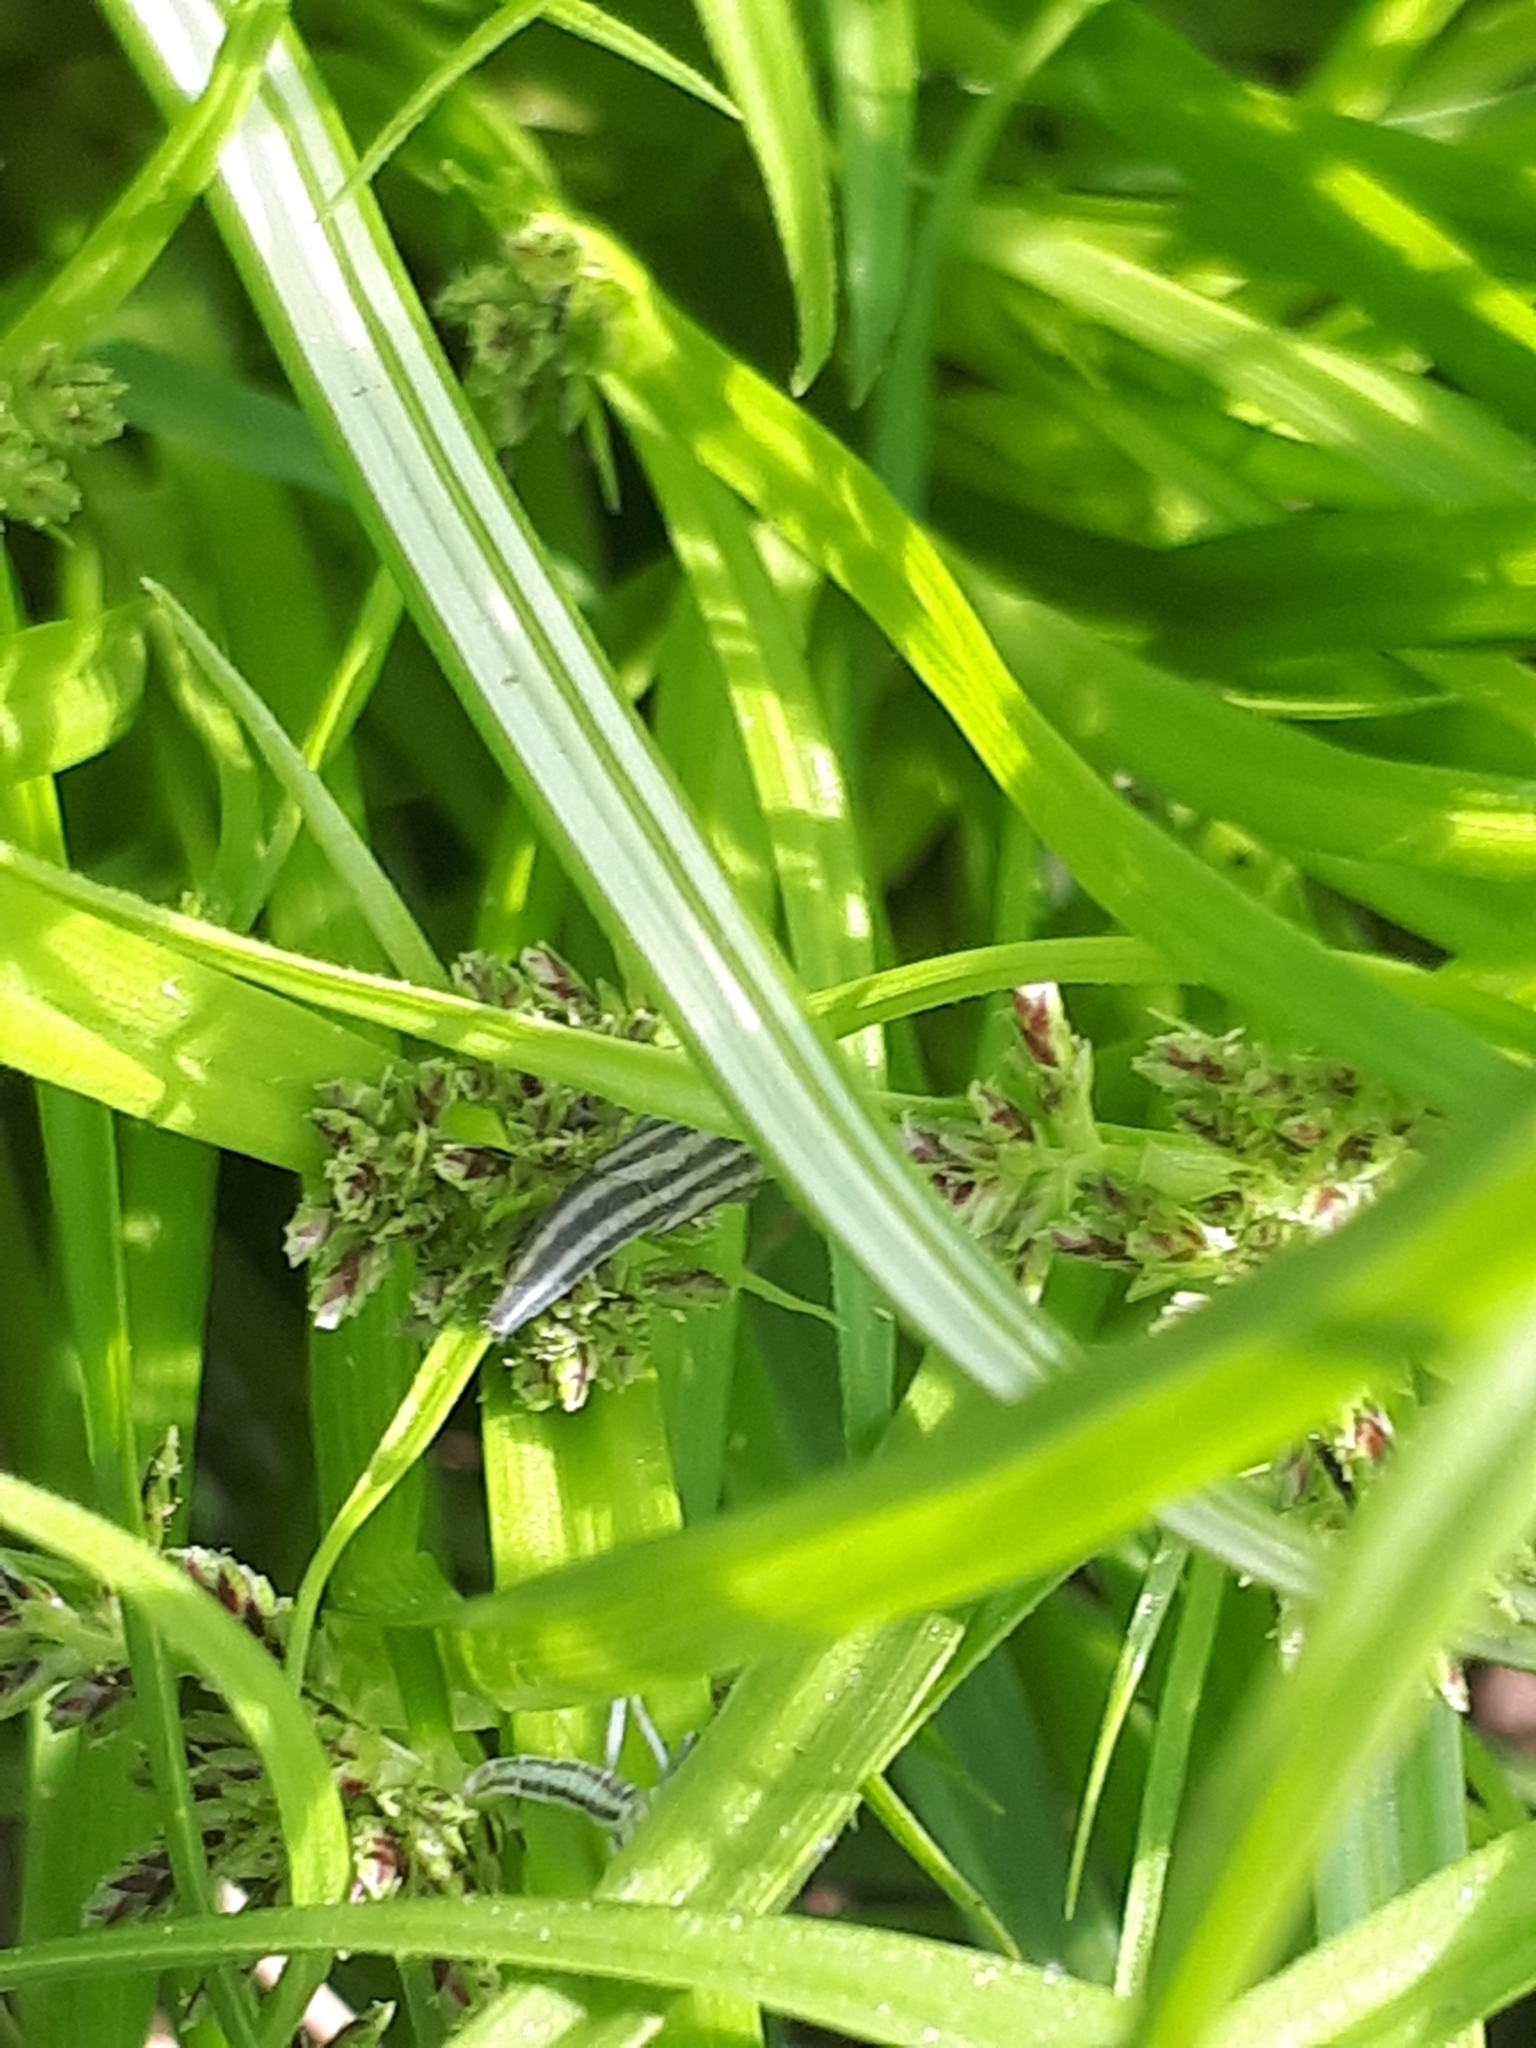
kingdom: Animalia
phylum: Arthropoda
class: Insecta
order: Hemiptera
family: Cicadellidae
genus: Cicadella
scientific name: Cicadella viridis
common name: Leafhopper
